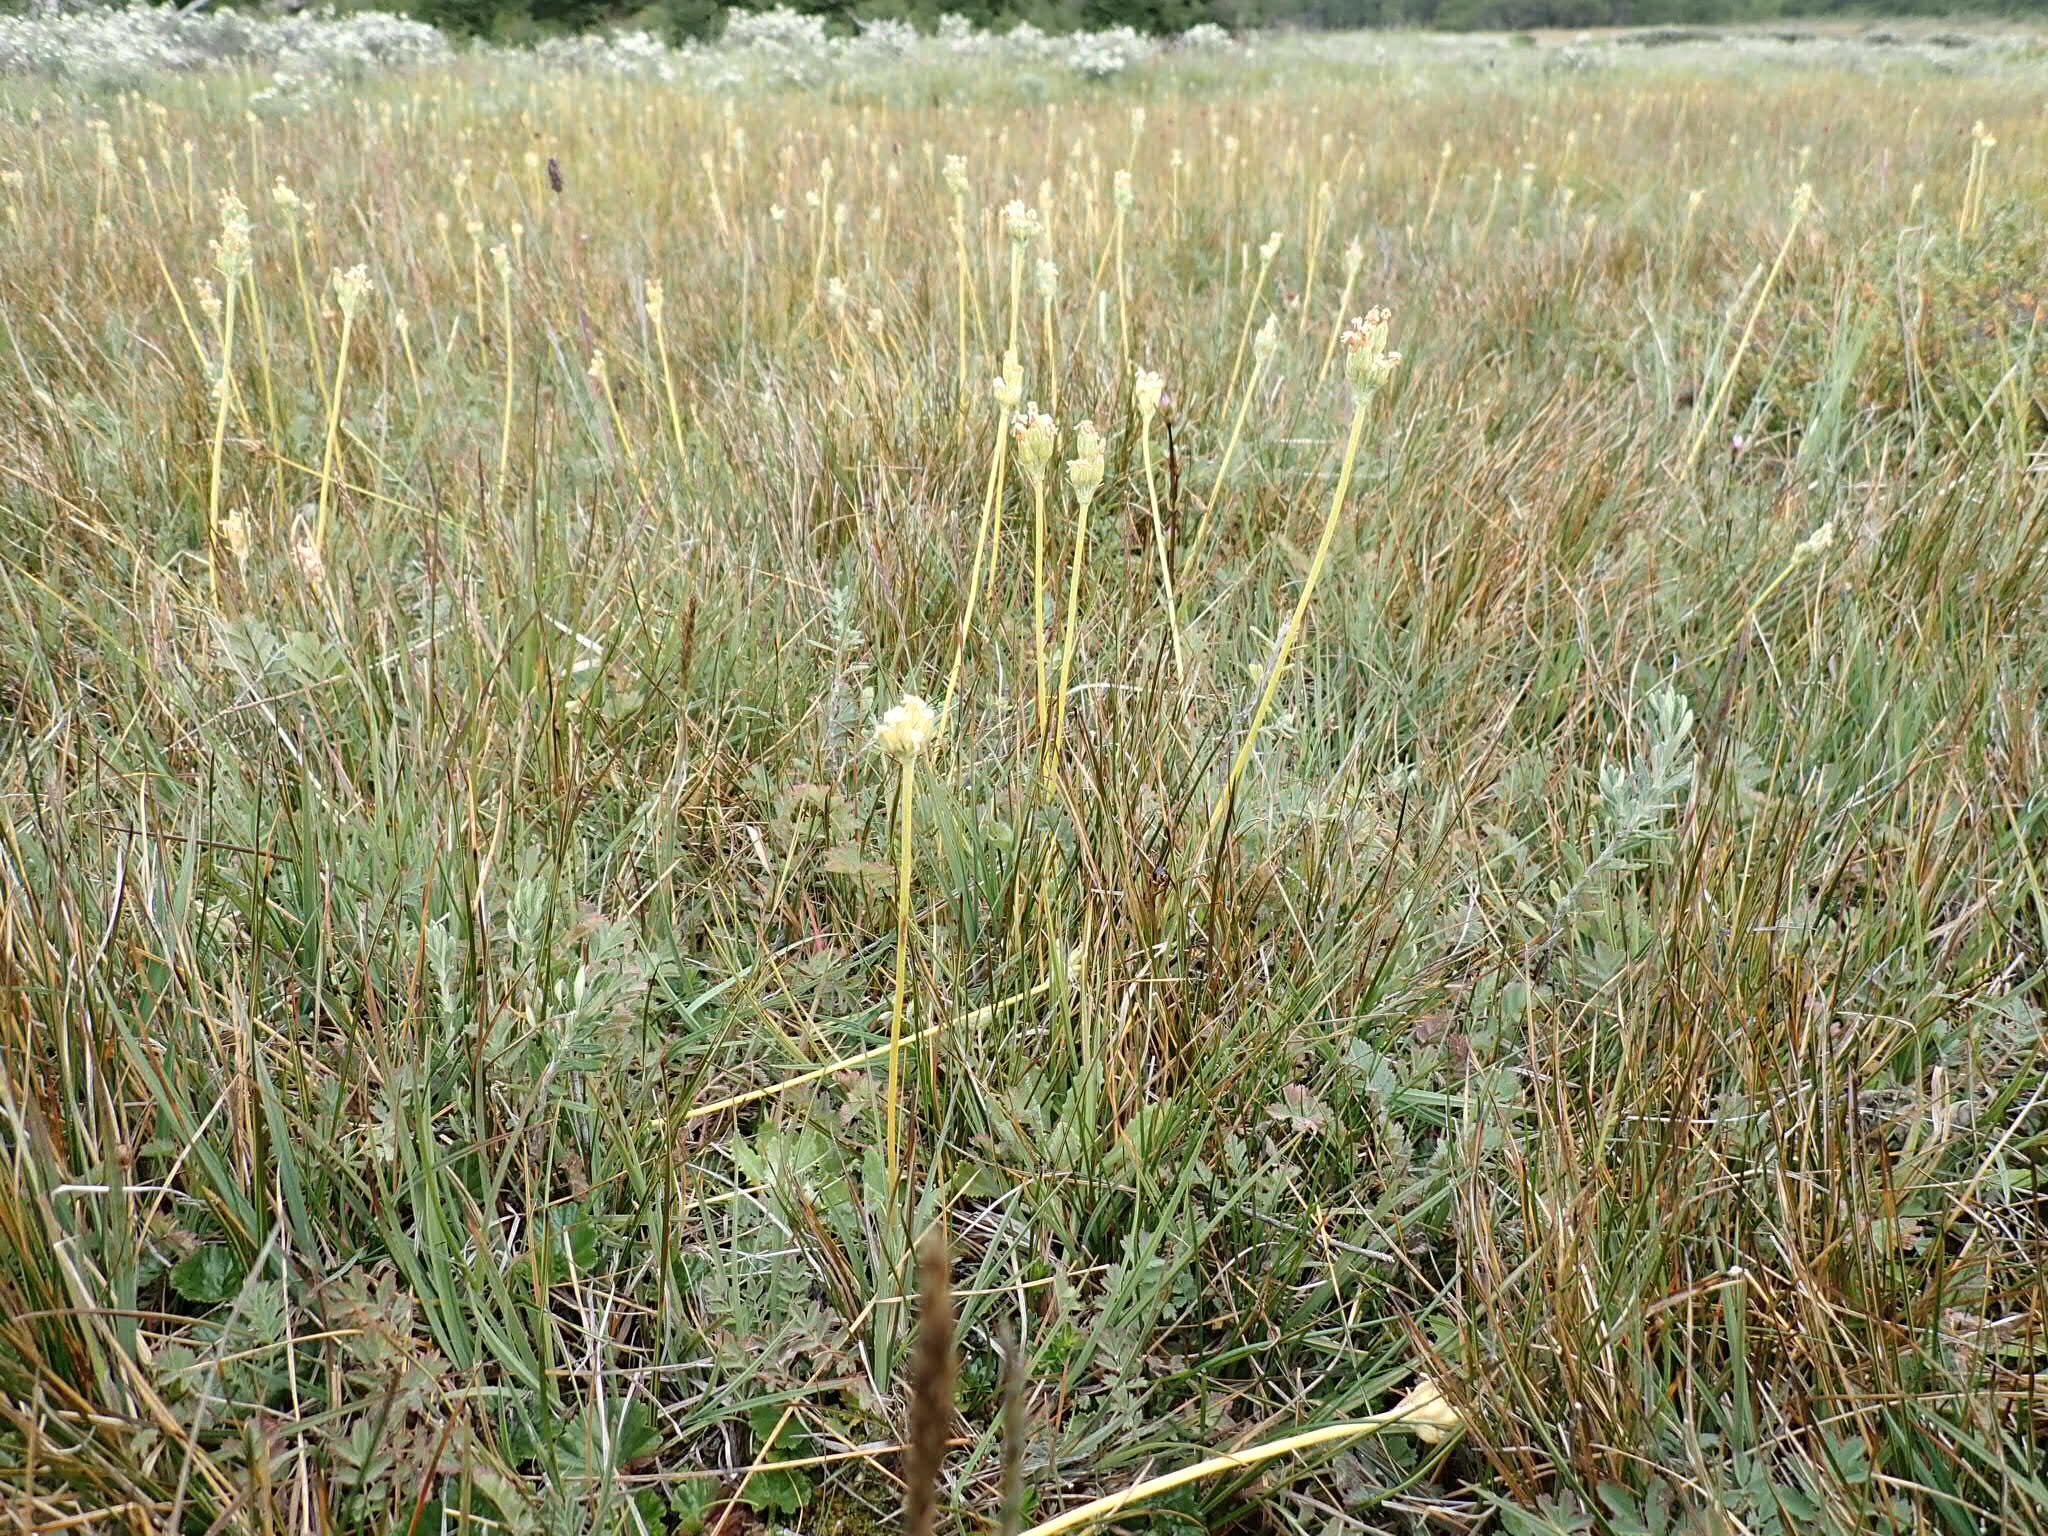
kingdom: Plantae
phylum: Tracheophyta
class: Magnoliopsida
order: Ericales
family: Primulaceae
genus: Primula
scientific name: Primula magellanica
